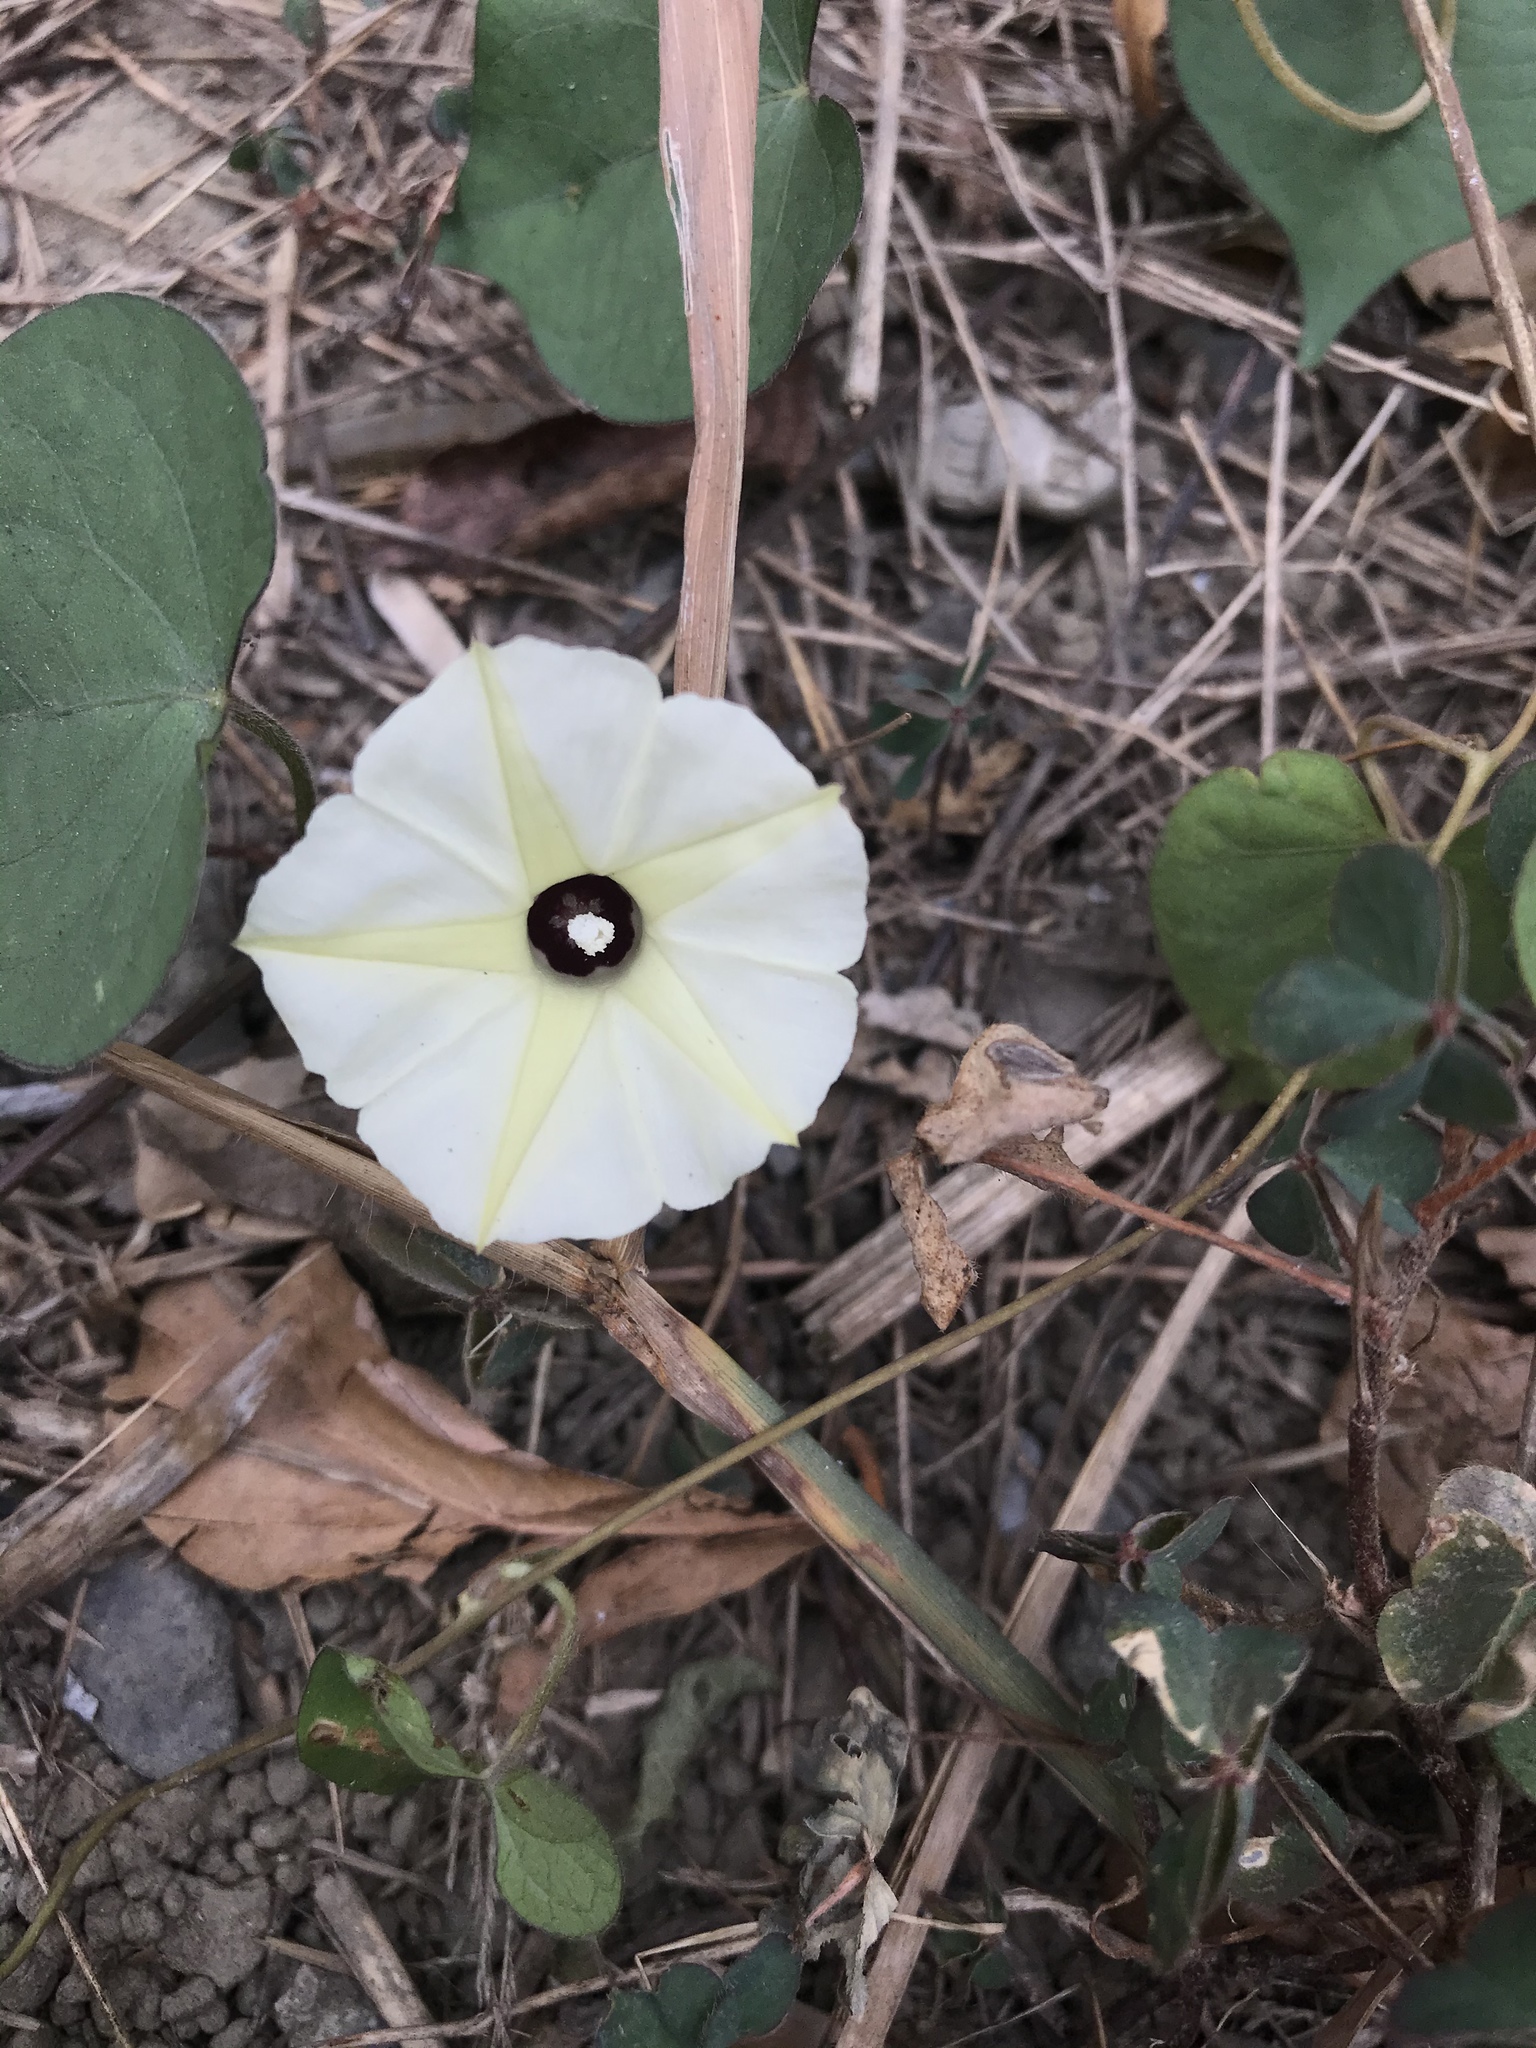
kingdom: Plantae
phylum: Tracheophyta
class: Magnoliopsida
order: Solanales
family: Convolvulaceae
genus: Ipomoea
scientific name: Ipomoea obscura
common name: Obscure morning-glory
